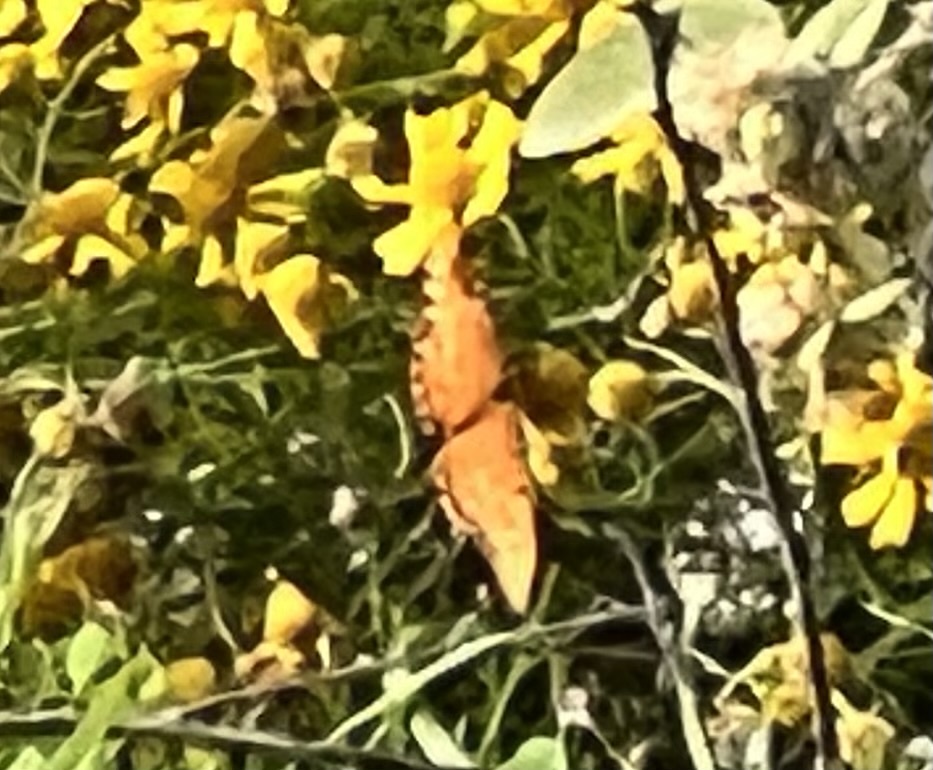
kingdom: Animalia
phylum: Arthropoda
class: Insecta
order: Lepidoptera
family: Nymphalidae
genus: Dione
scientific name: Dione vanillae
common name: Gulf fritillary
